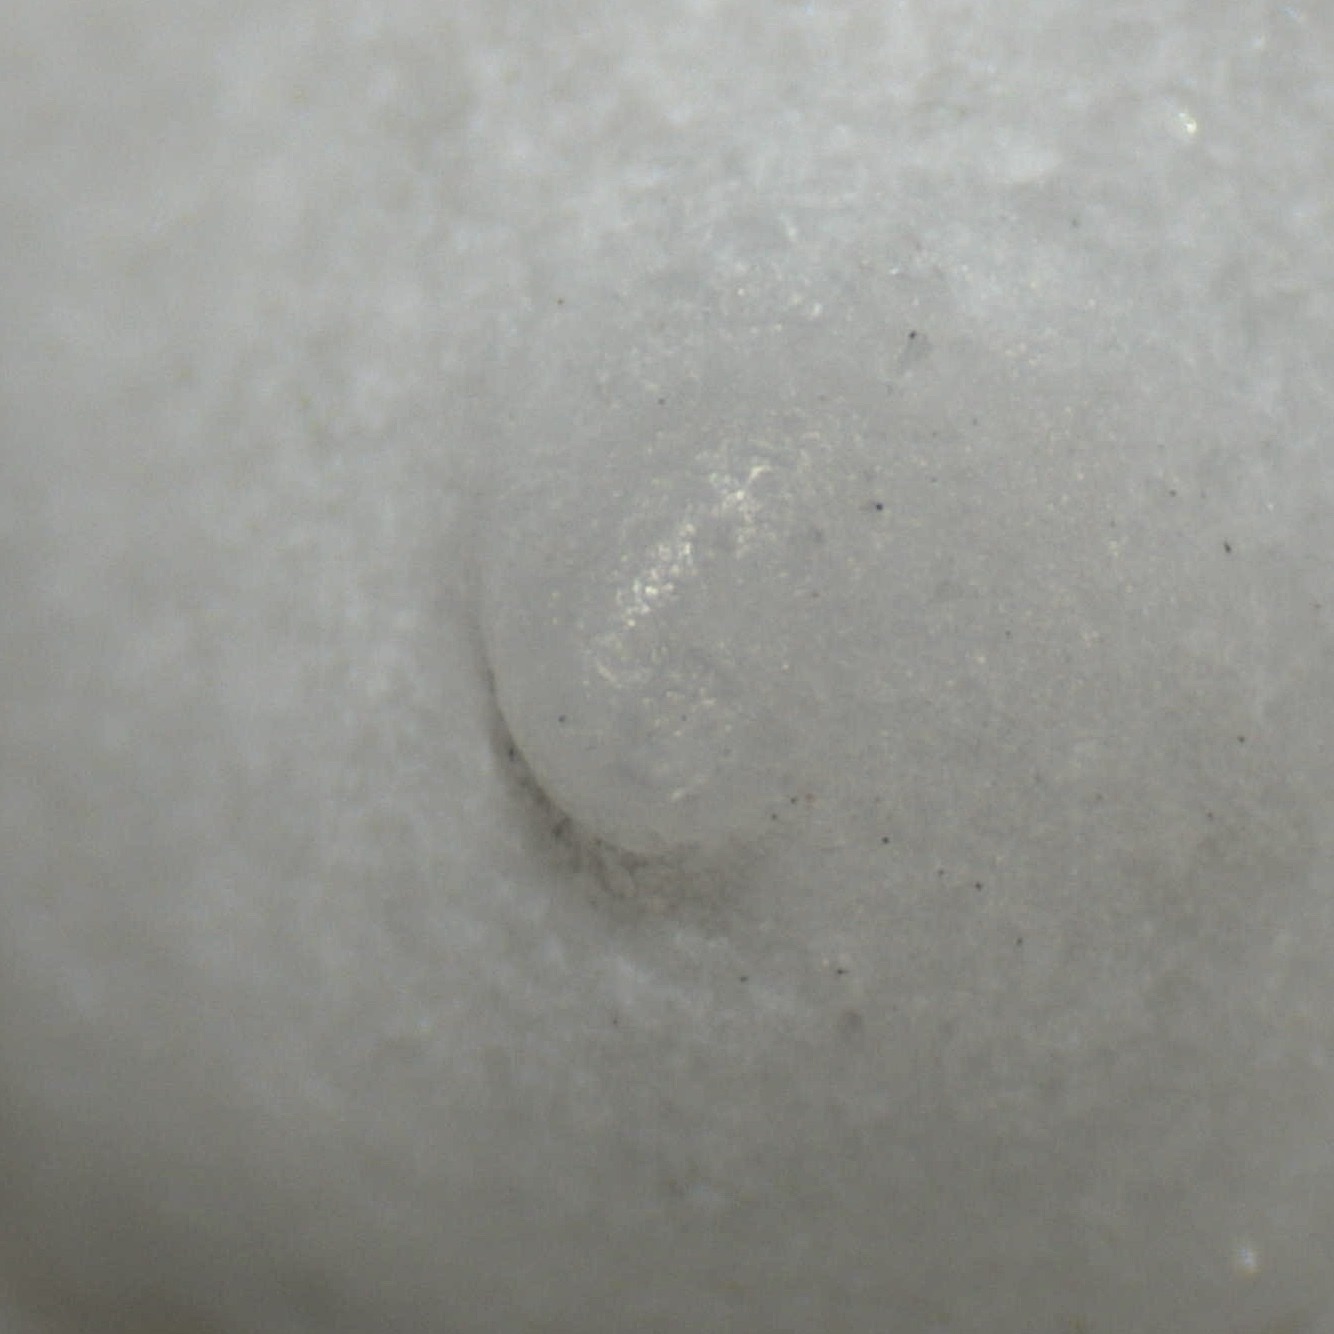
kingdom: Animalia
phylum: Mollusca
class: Gastropoda
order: Littorinimorpha
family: Calyptraeidae
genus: Calyptraea
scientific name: Calyptraea centralis
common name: Circular chinese hat
